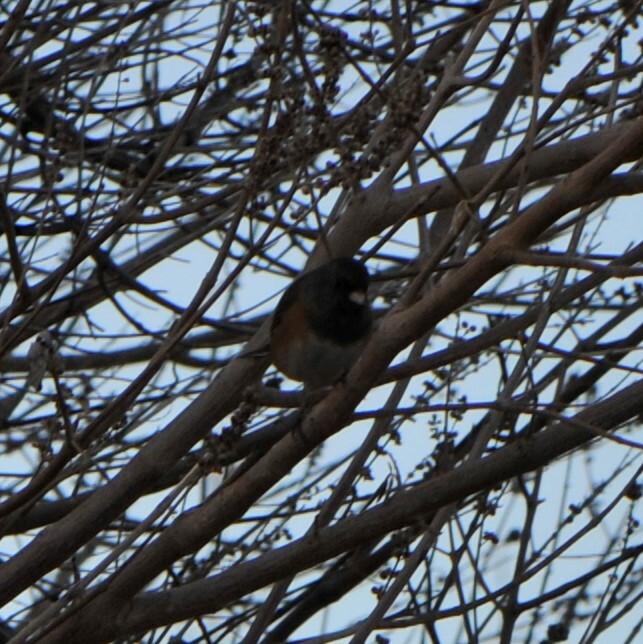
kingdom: Animalia
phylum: Chordata
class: Aves
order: Passeriformes
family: Passerellidae
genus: Junco
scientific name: Junco hyemalis
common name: Dark-eyed junco
